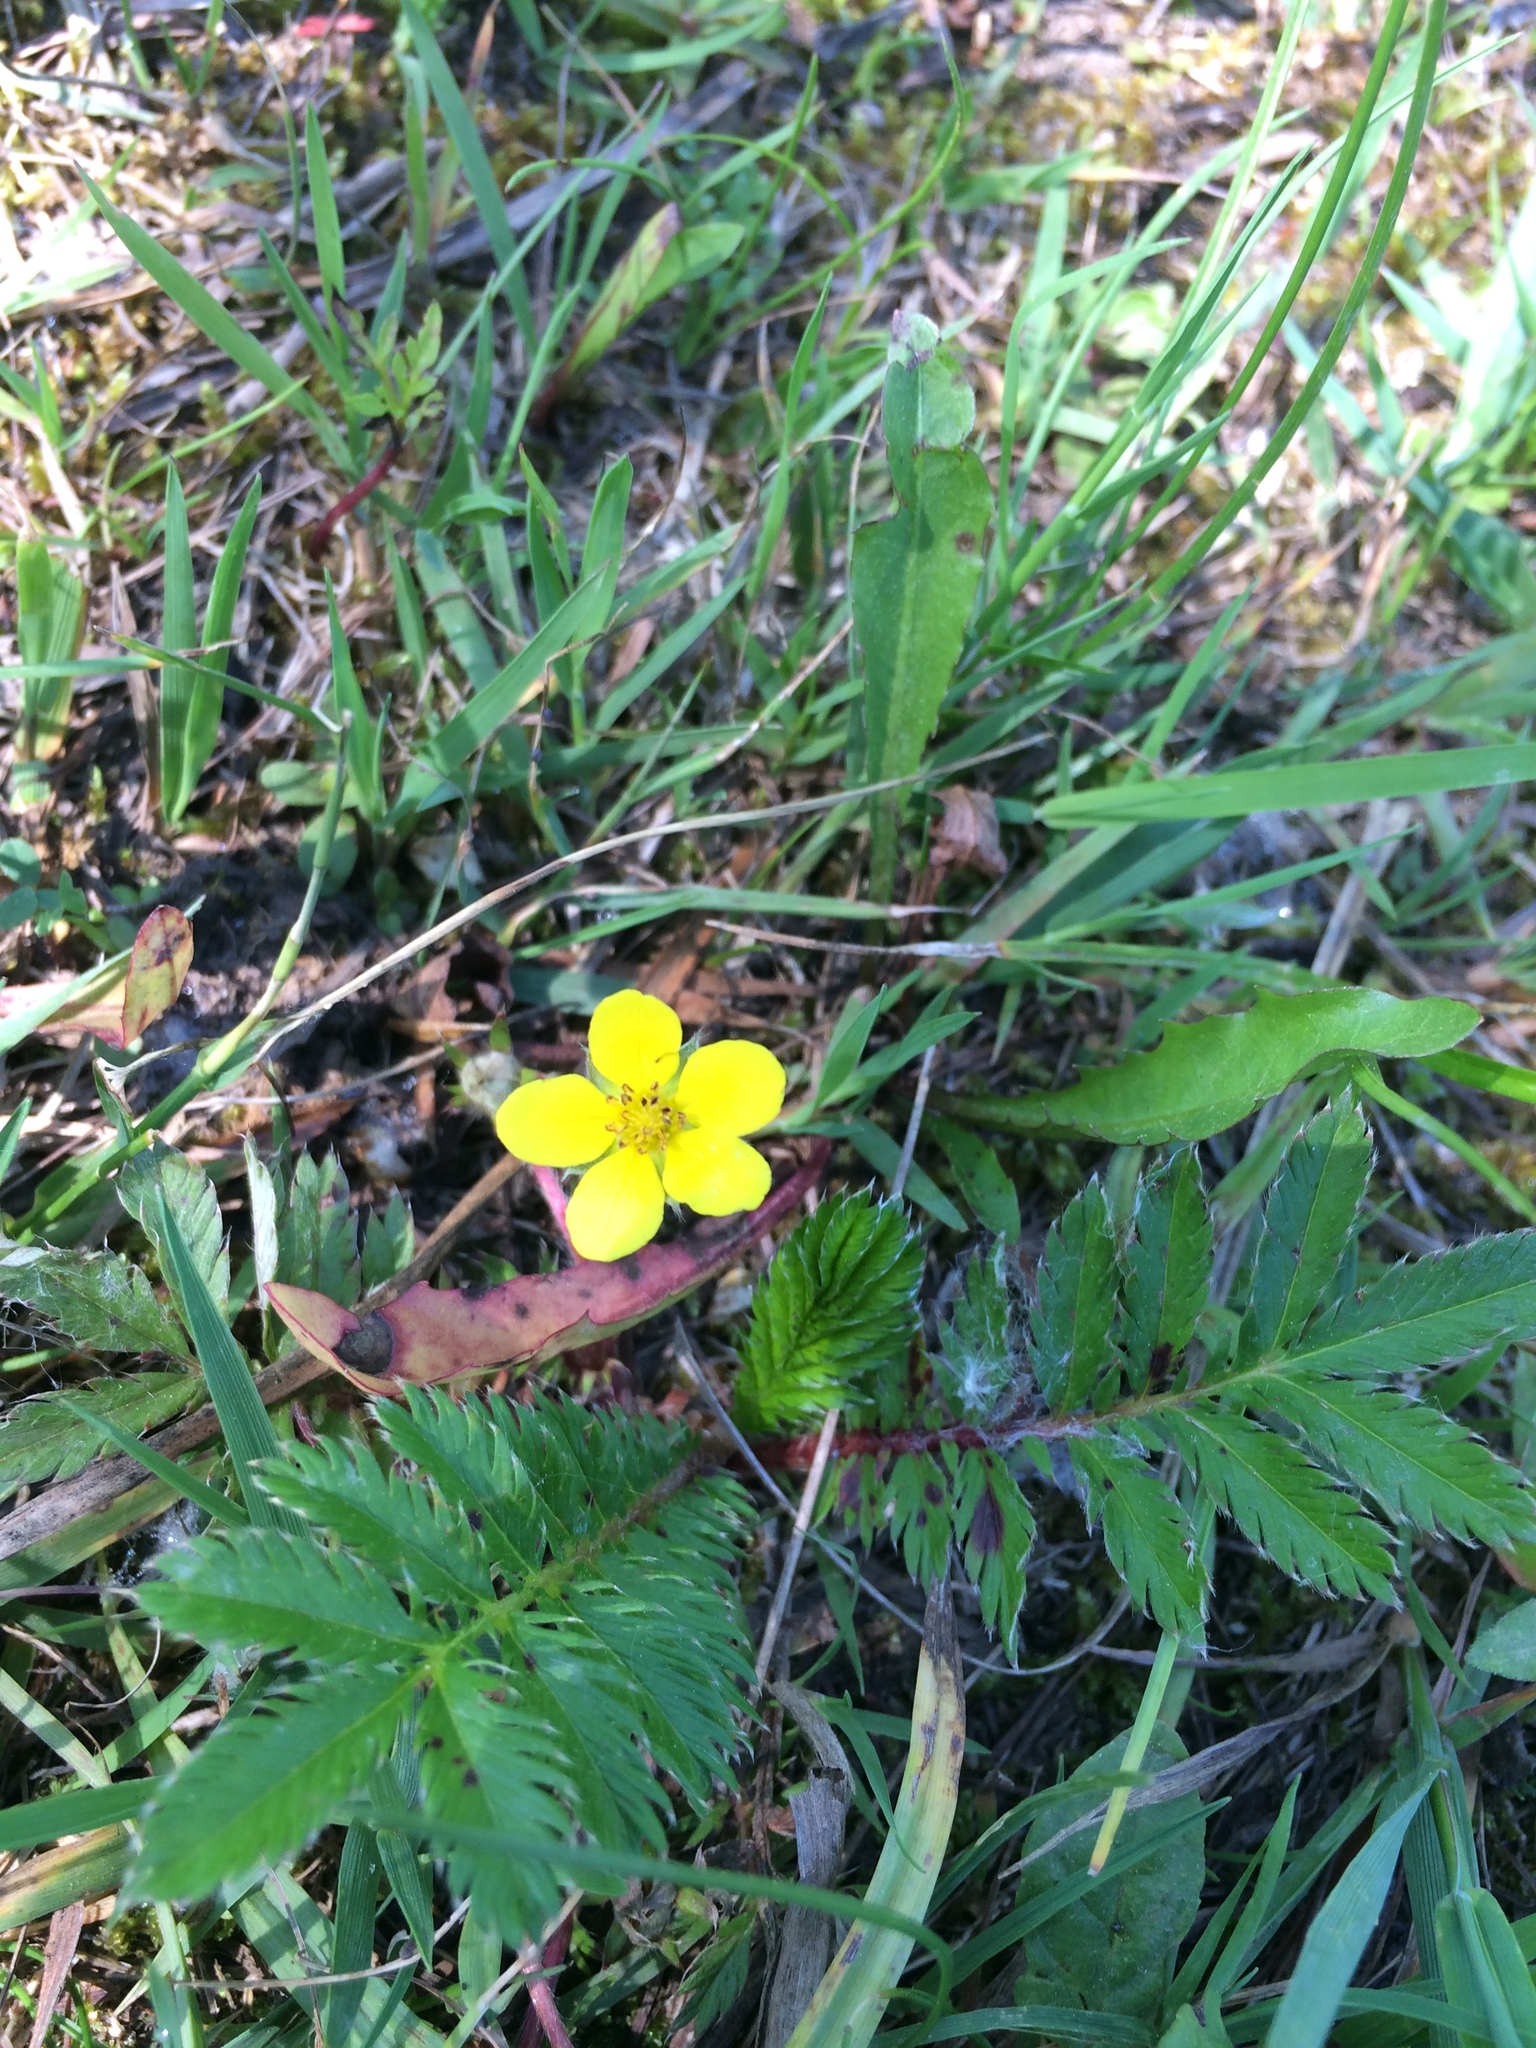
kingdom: Plantae
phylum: Tracheophyta
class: Magnoliopsida
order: Rosales
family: Rosaceae
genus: Argentina
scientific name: Argentina anserina
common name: Common silverweed
